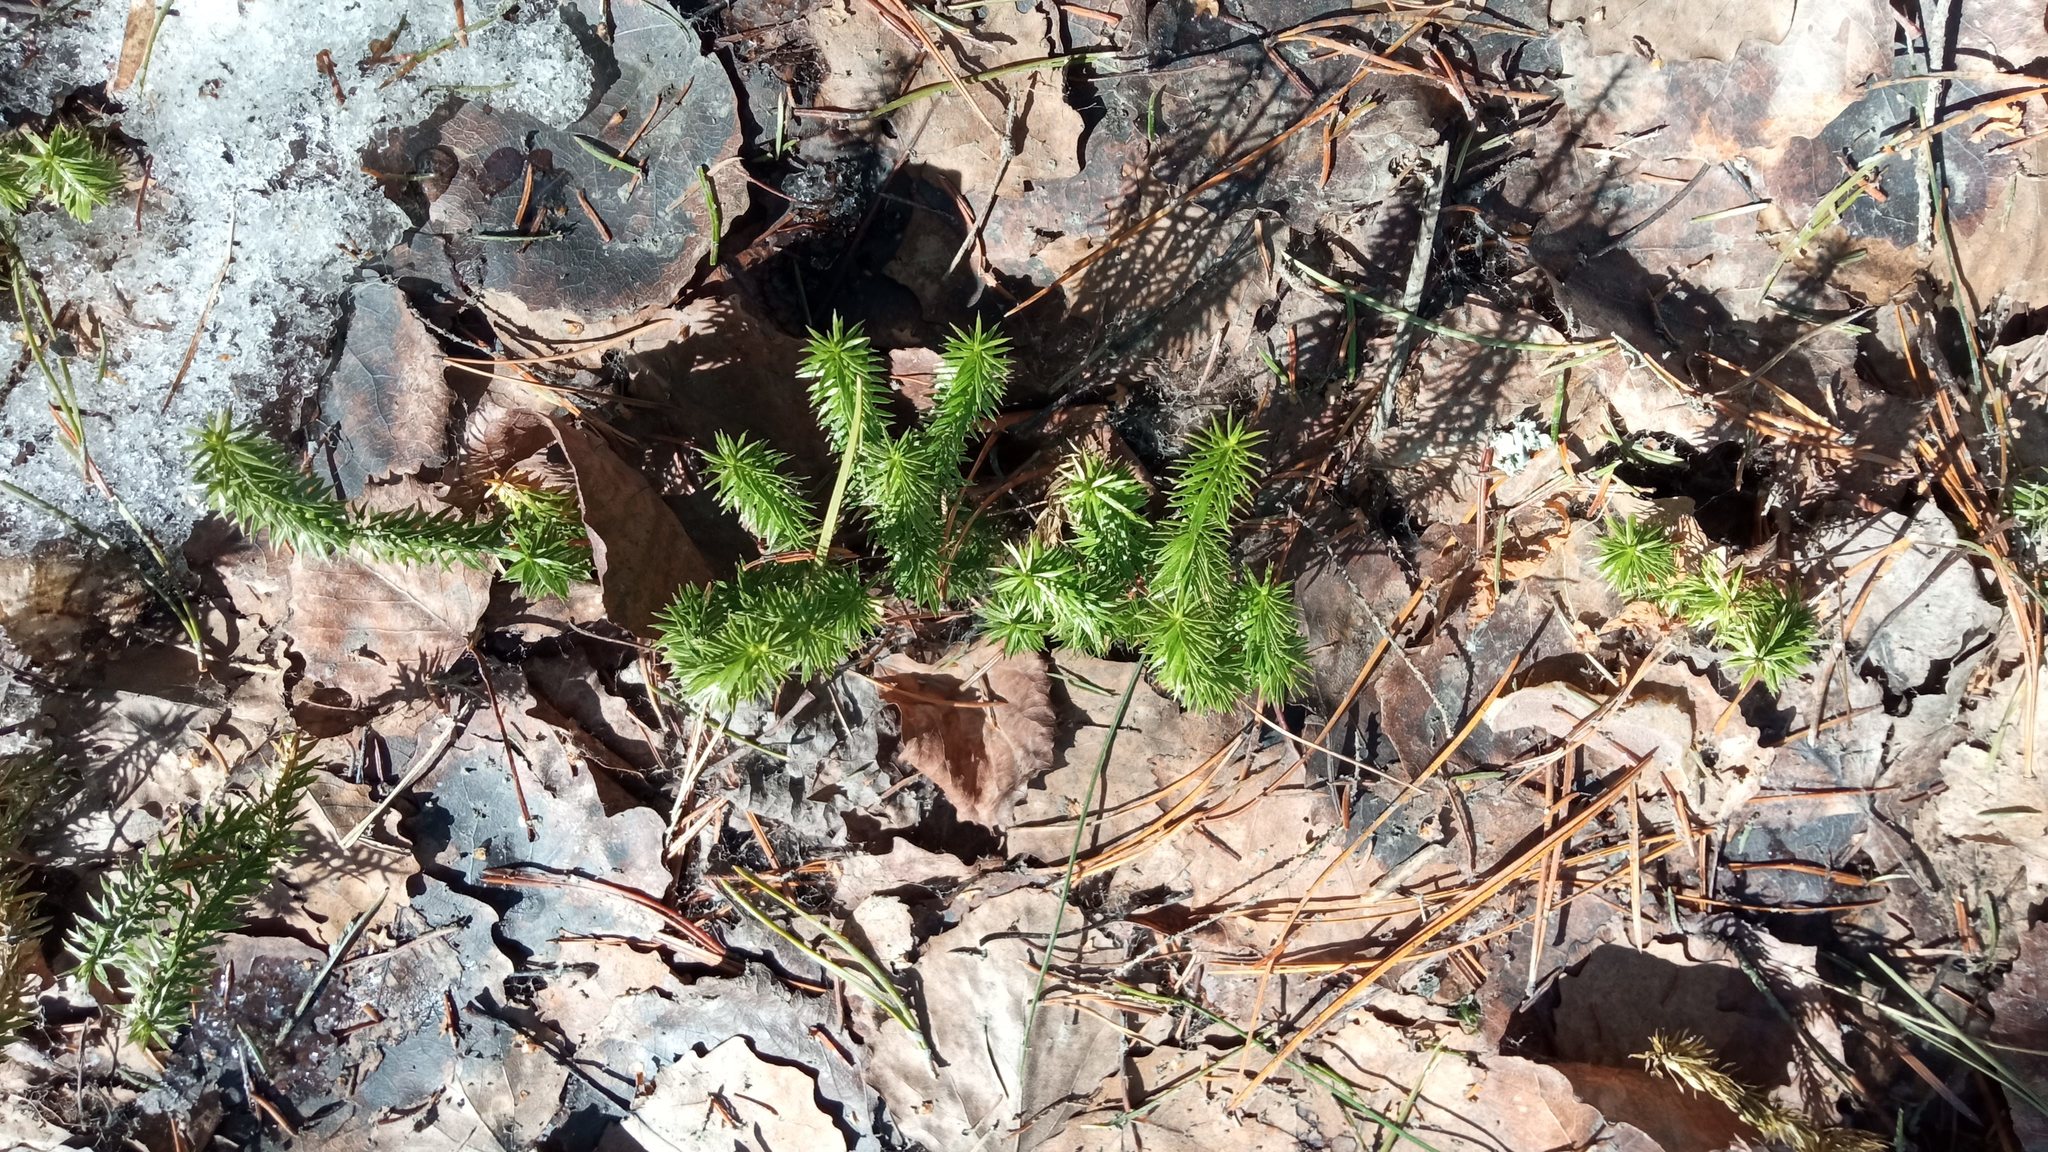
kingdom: Plantae
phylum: Tracheophyta
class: Lycopodiopsida
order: Lycopodiales
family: Lycopodiaceae
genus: Spinulum
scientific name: Spinulum annotinum
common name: Interrupted club-moss
